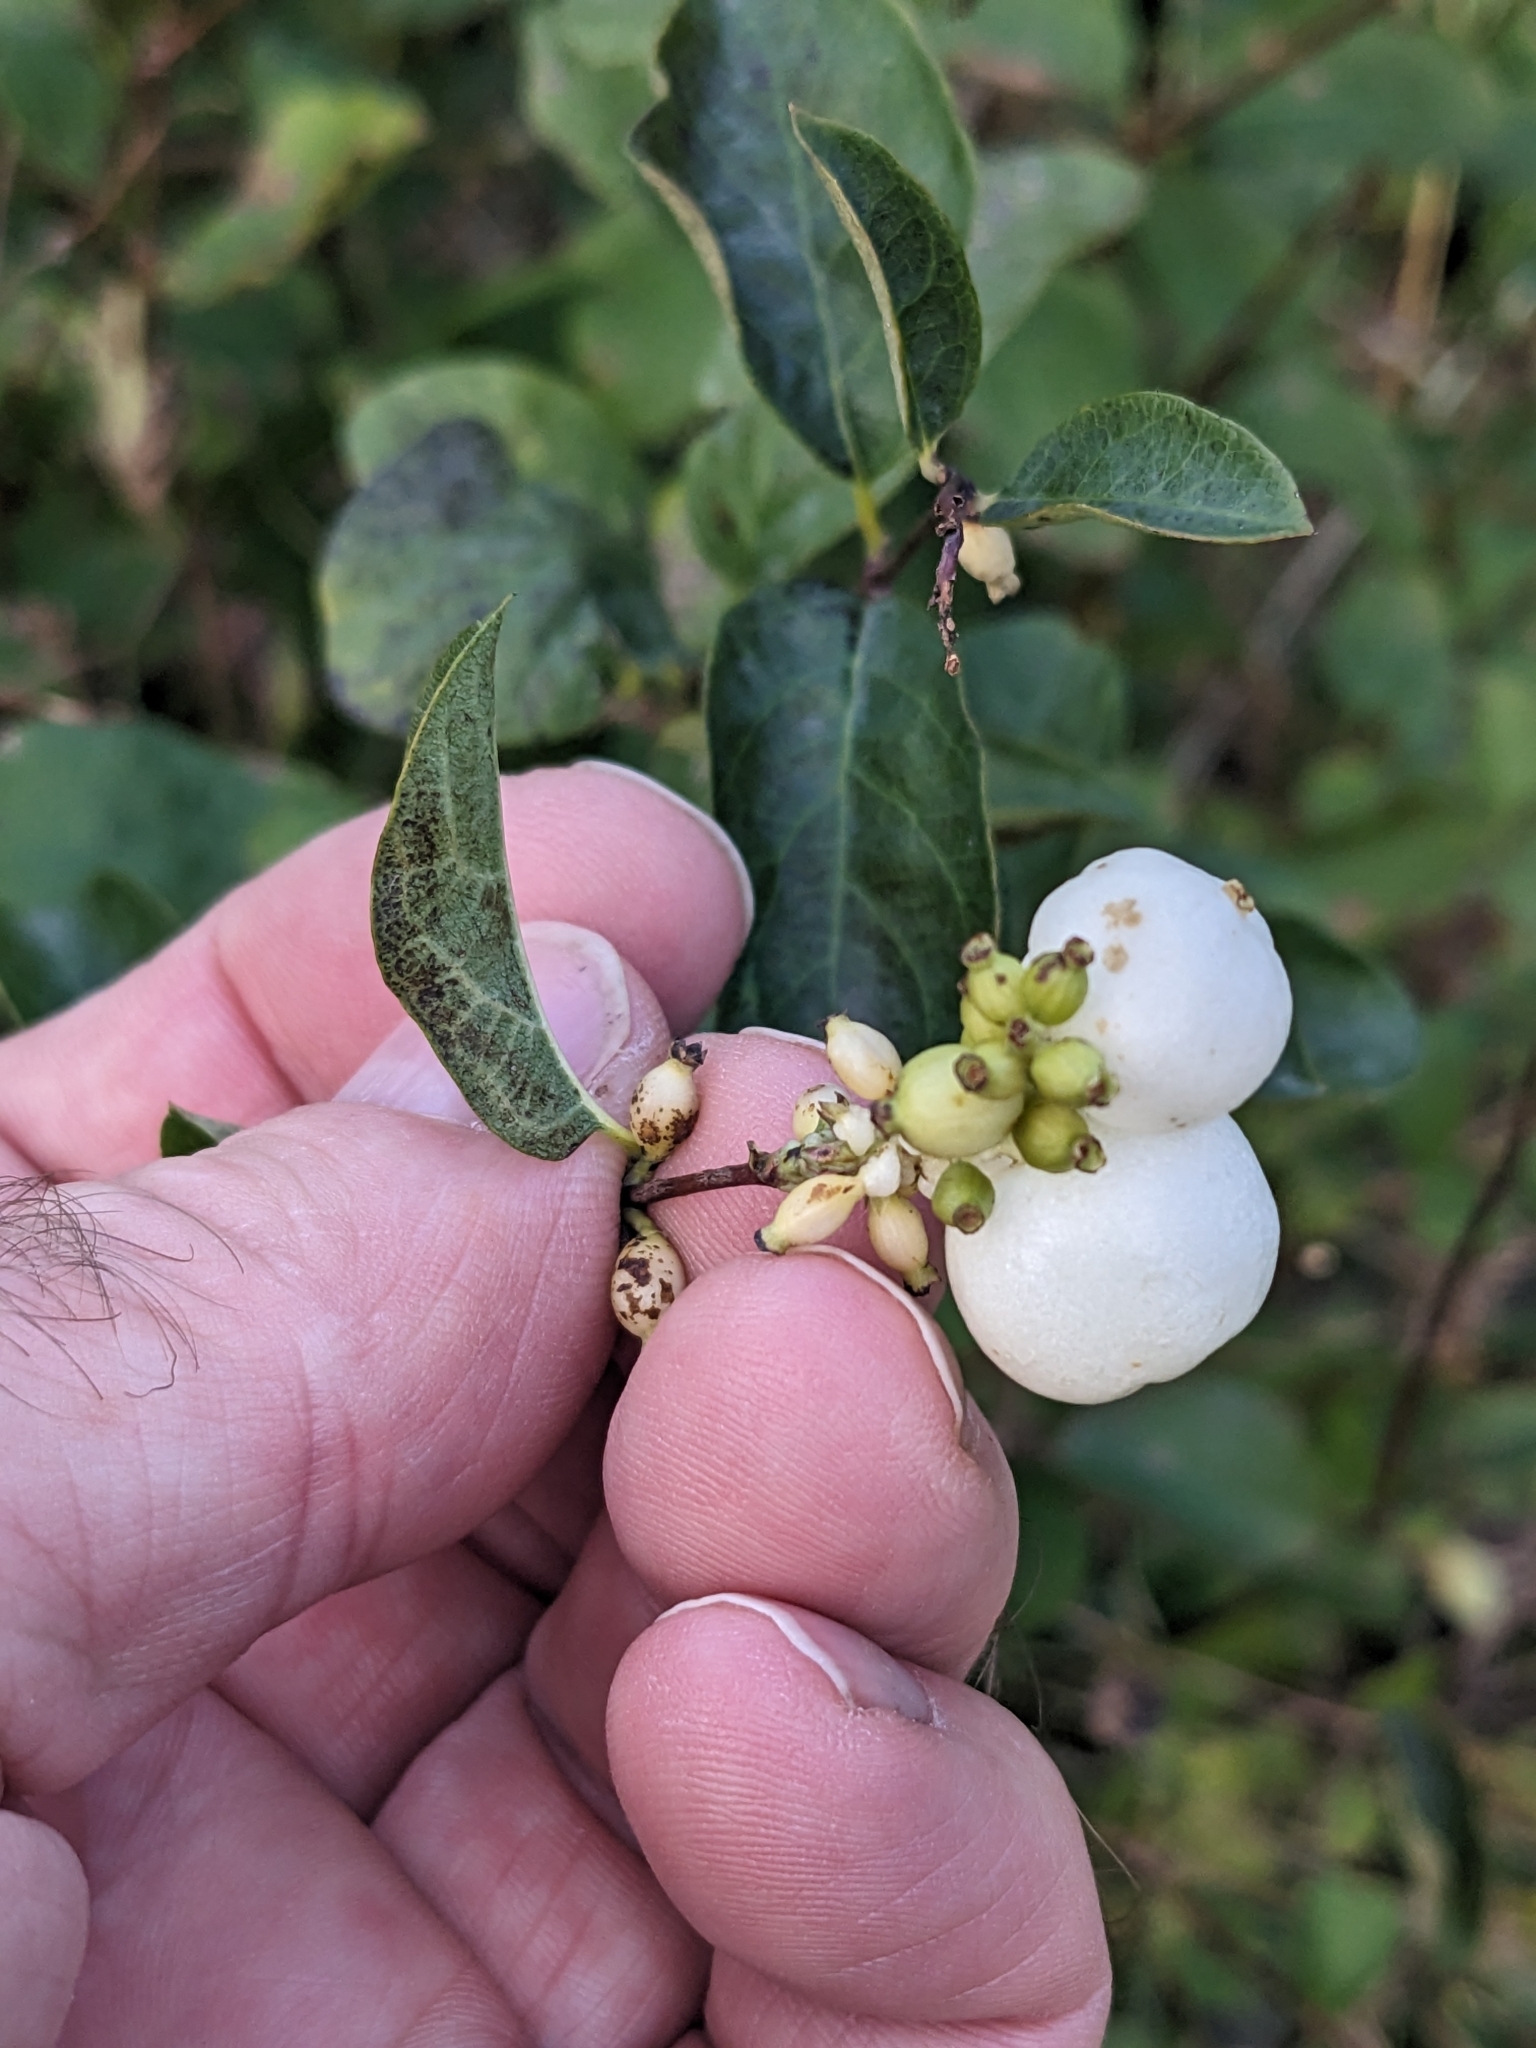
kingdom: Plantae
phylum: Tracheophyta
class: Magnoliopsida
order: Dipsacales
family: Caprifoliaceae
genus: Symphoricarpos
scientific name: Symphoricarpos albus
